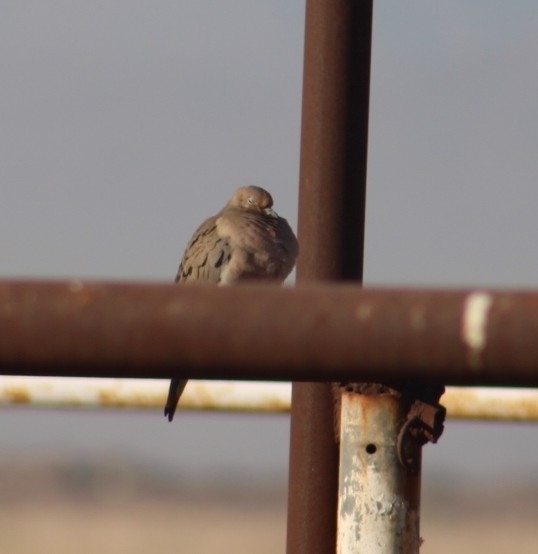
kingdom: Animalia
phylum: Chordata
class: Aves
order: Columbiformes
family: Columbidae
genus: Zenaida
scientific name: Zenaida macroura
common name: Mourning dove
